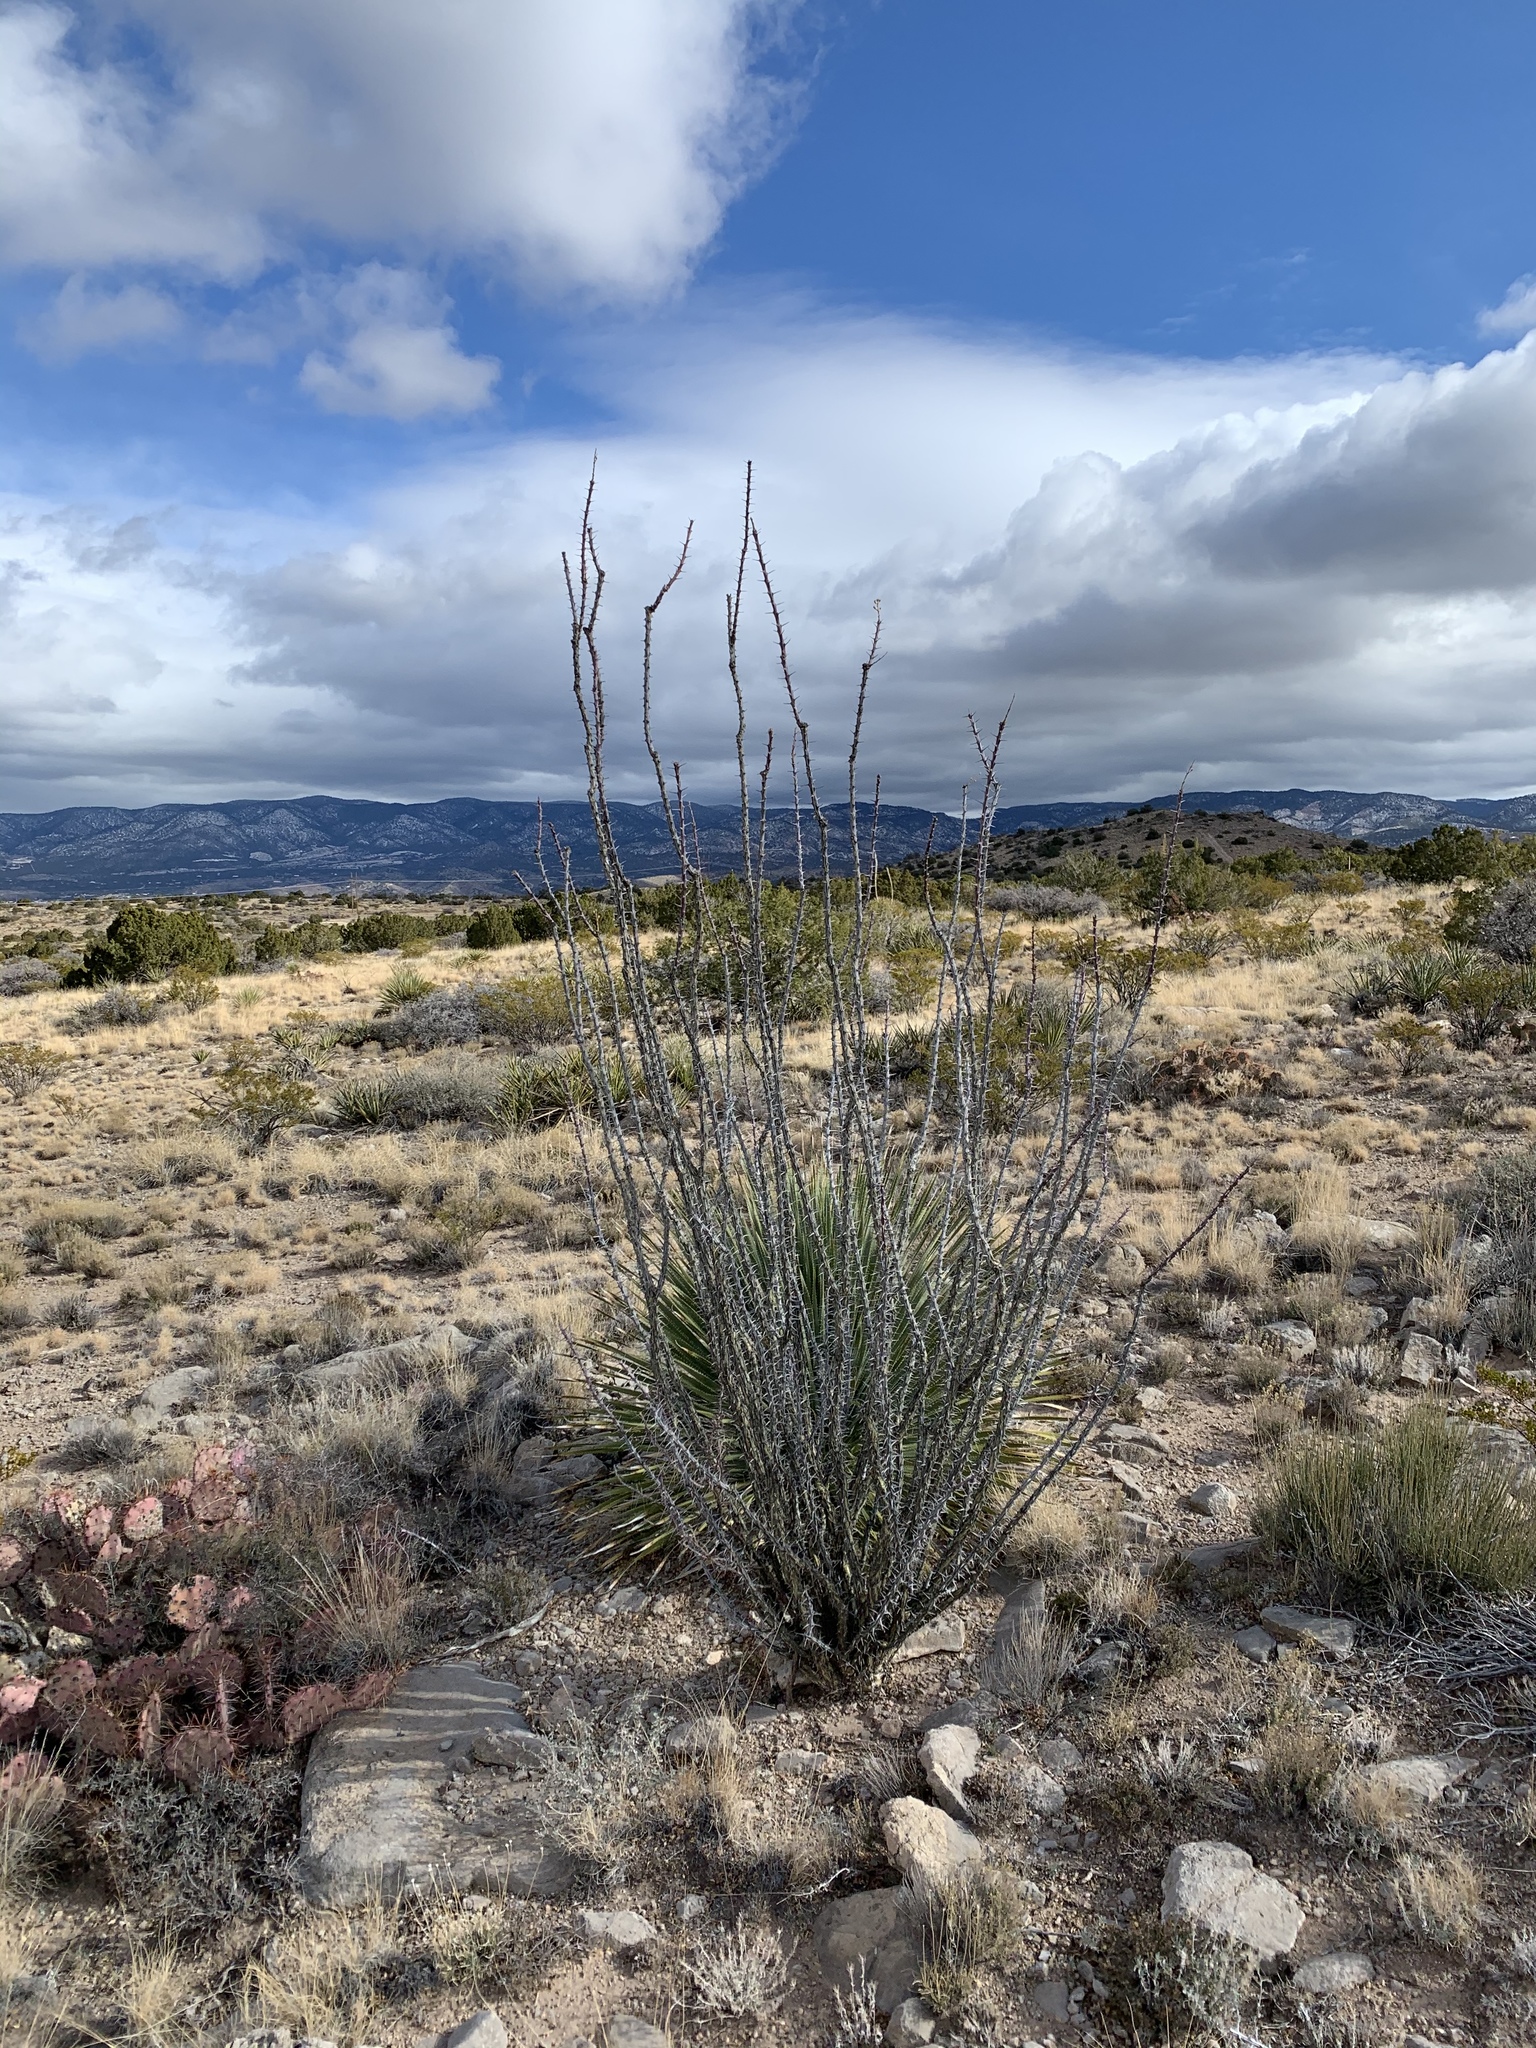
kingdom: Plantae
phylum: Tracheophyta
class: Magnoliopsida
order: Ericales
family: Fouquieriaceae
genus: Fouquieria
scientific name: Fouquieria splendens
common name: Vine-cactus
